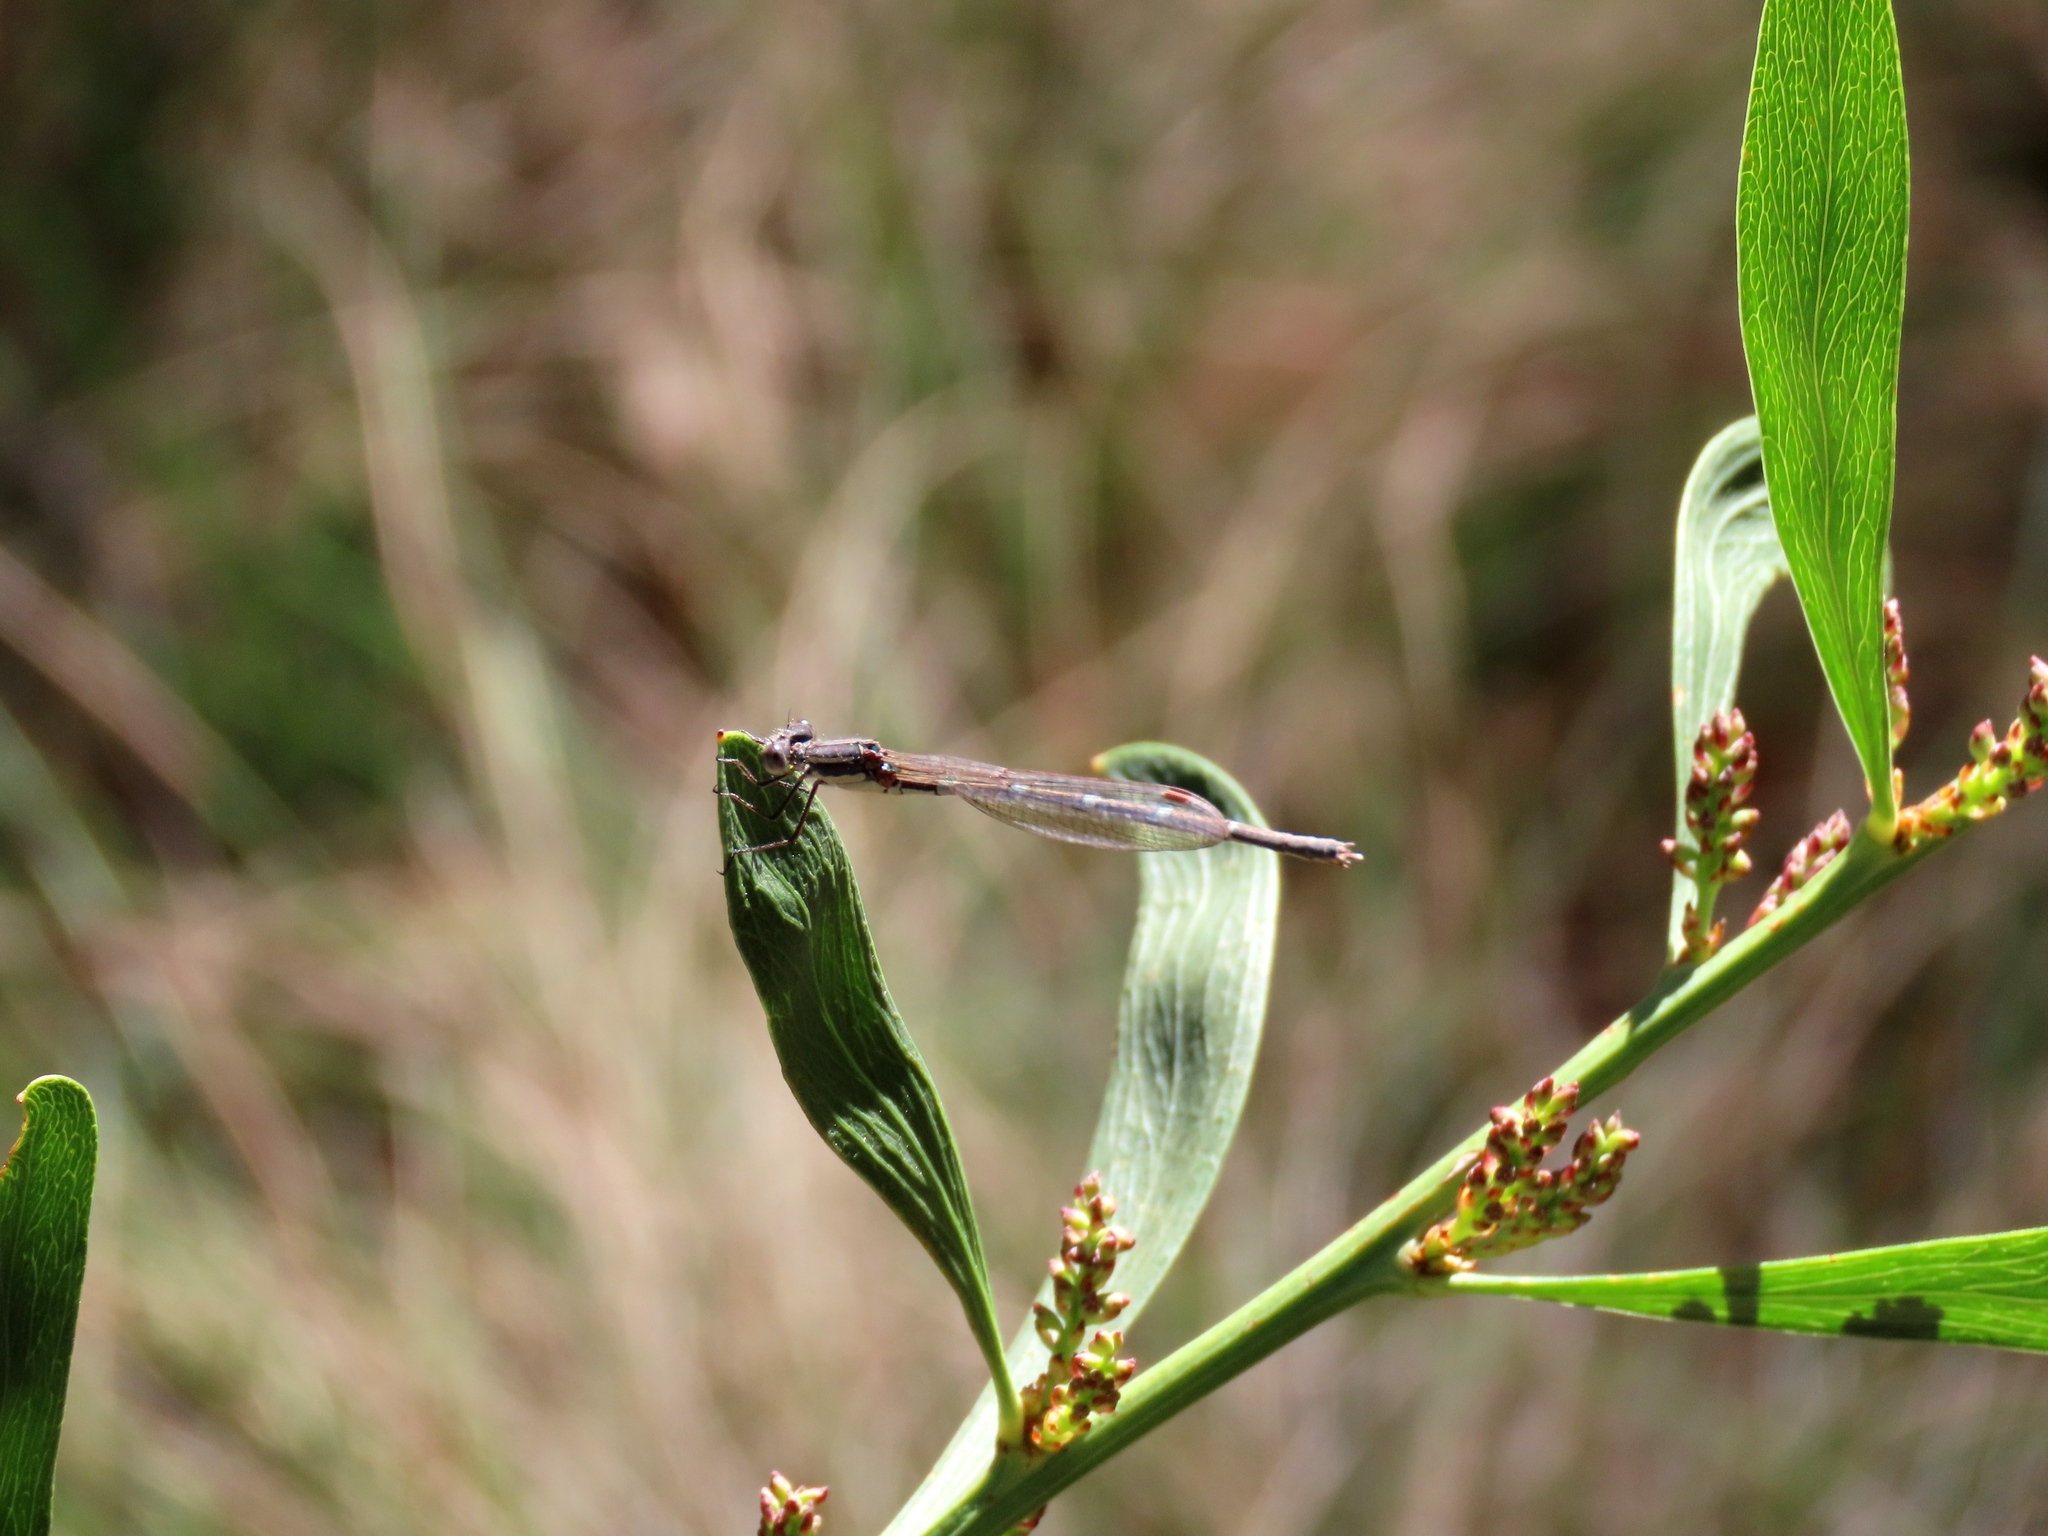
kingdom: Animalia
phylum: Arthropoda
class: Insecta
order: Odonata
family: Lestidae
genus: Austrolestes
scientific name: Austrolestes leda
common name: Wandering ringtail
